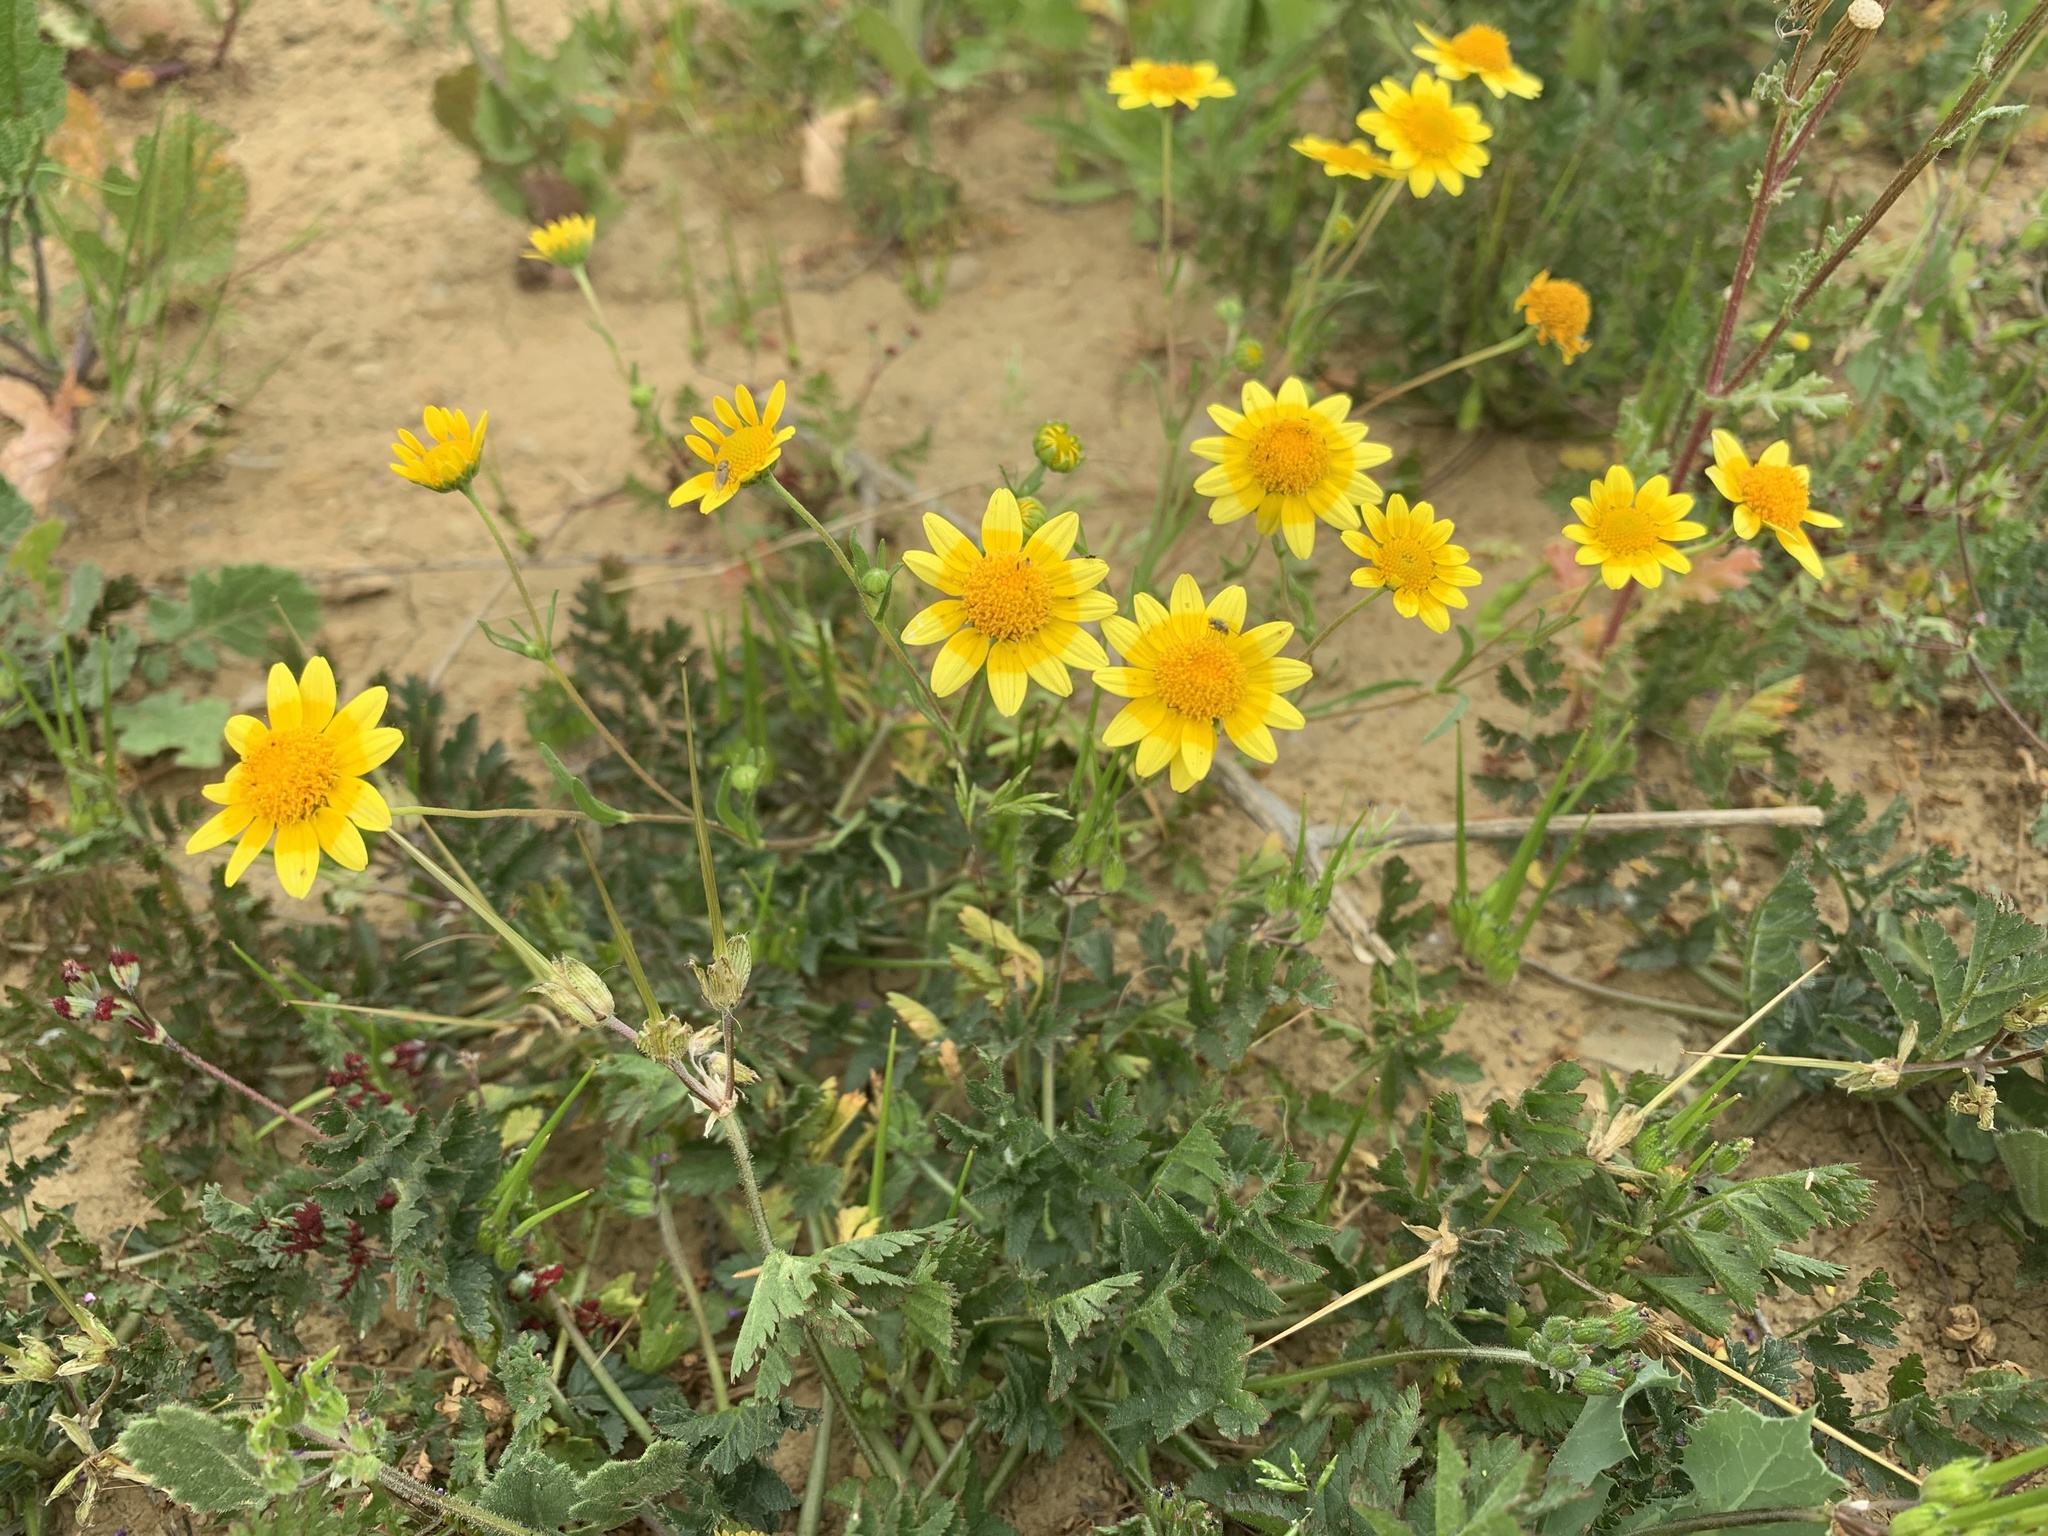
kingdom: Plantae
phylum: Tracheophyta
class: Magnoliopsida
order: Asterales
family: Asteraceae
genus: Lasthenia
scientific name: Lasthenia gracilis
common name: Common goldfields
